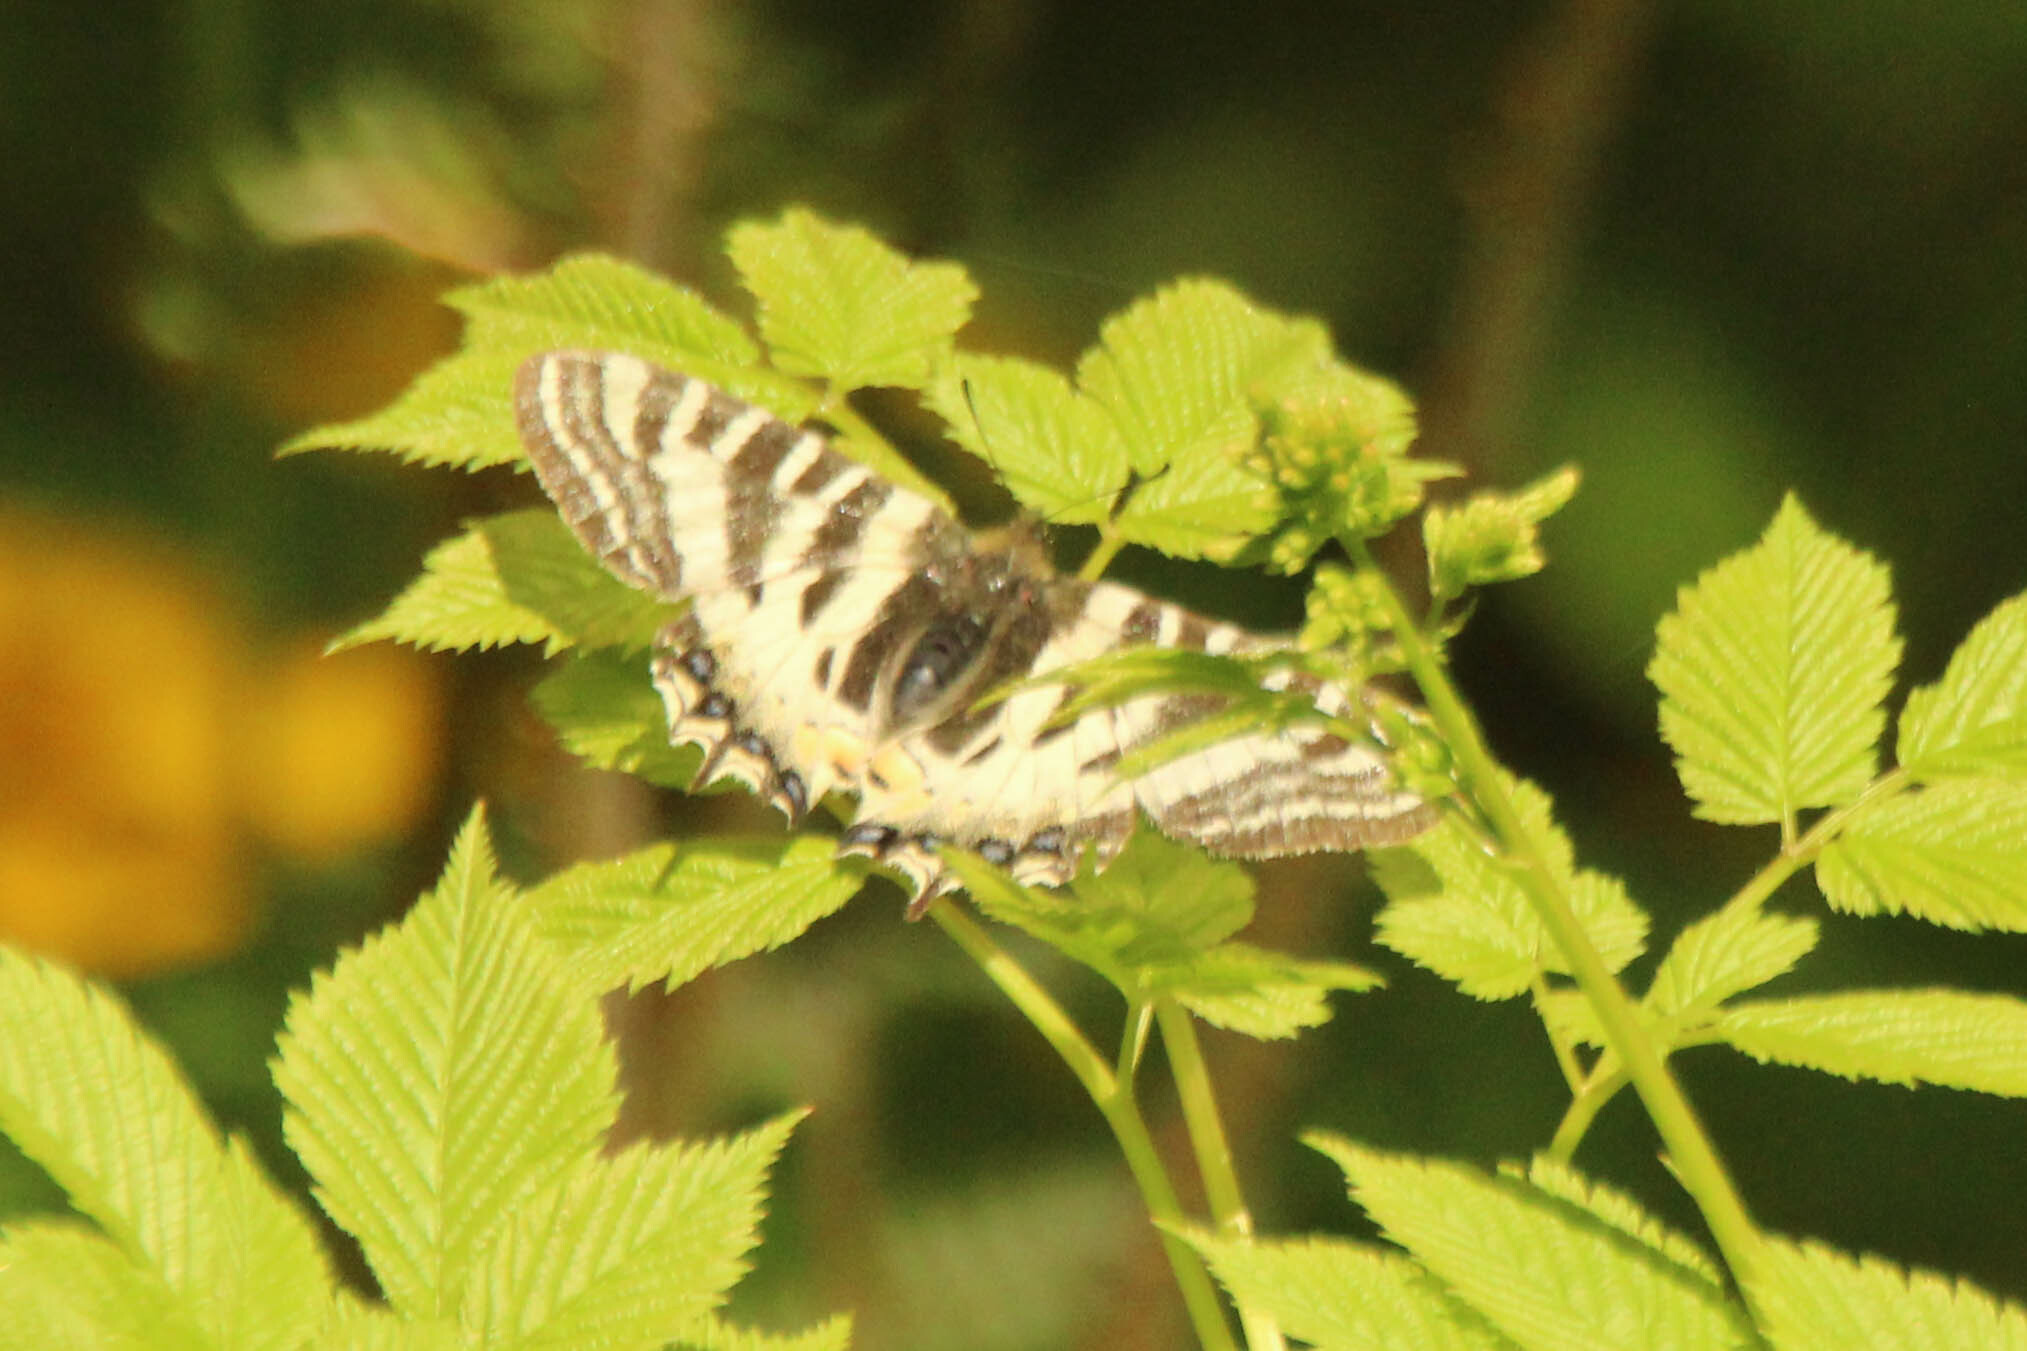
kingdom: Animalia
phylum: Arthropoda
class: Insecta
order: Lepidoptera
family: Papilionidae
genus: Luehdorfia
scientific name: Luehdorfia puziloi
